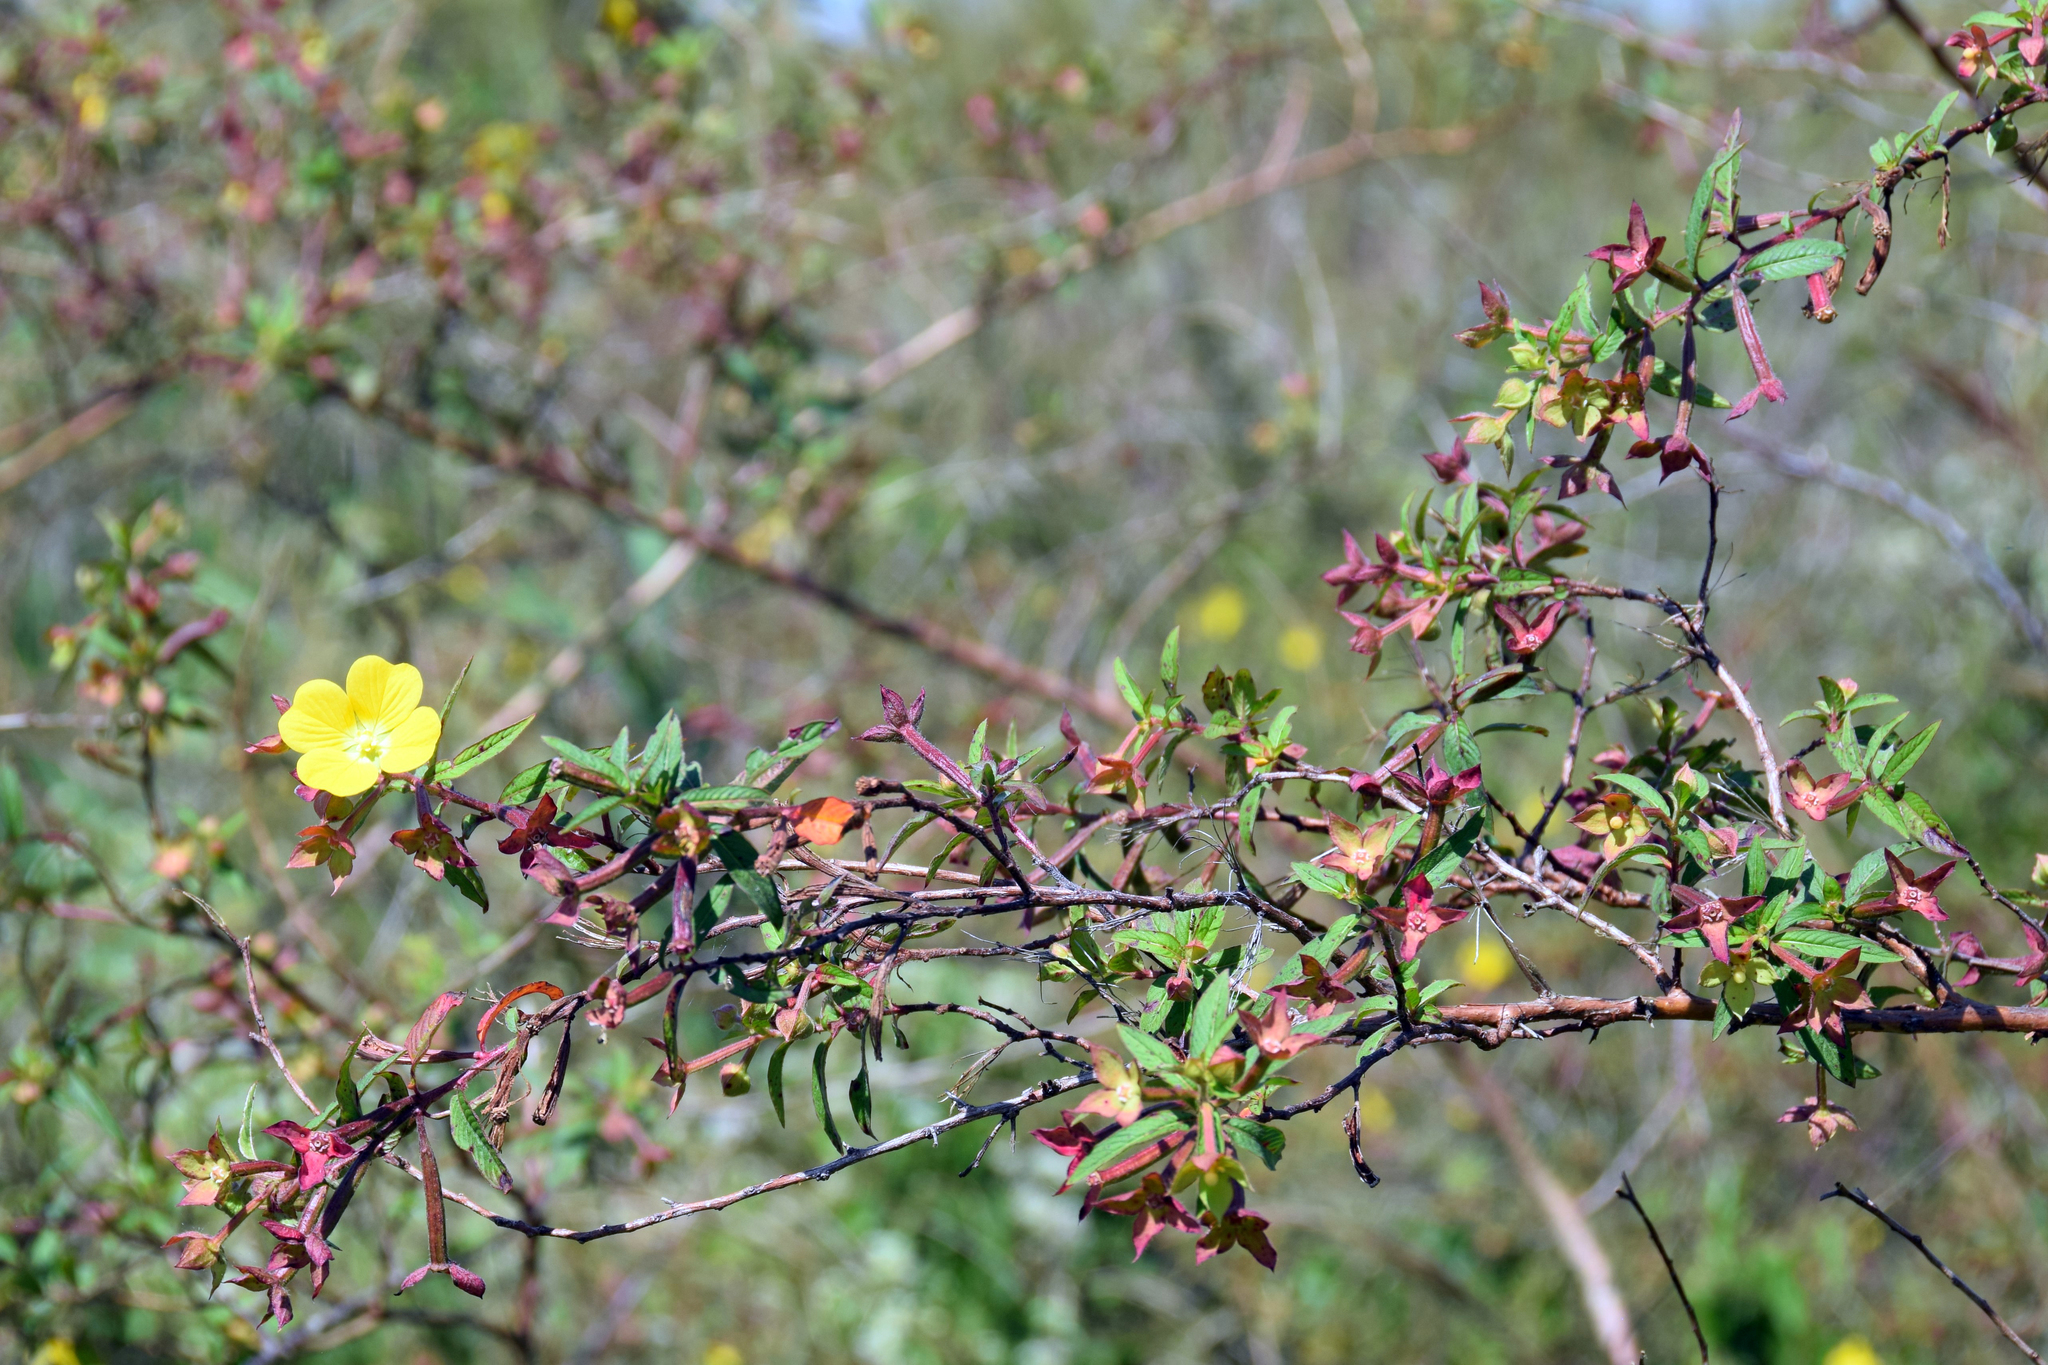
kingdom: Plantae
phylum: Tracheophyta
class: Magnoliopsida
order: Myrtales
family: Onagraceae
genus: Ludwigia
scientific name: Ludwigia octovalvis
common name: Water-primrose
